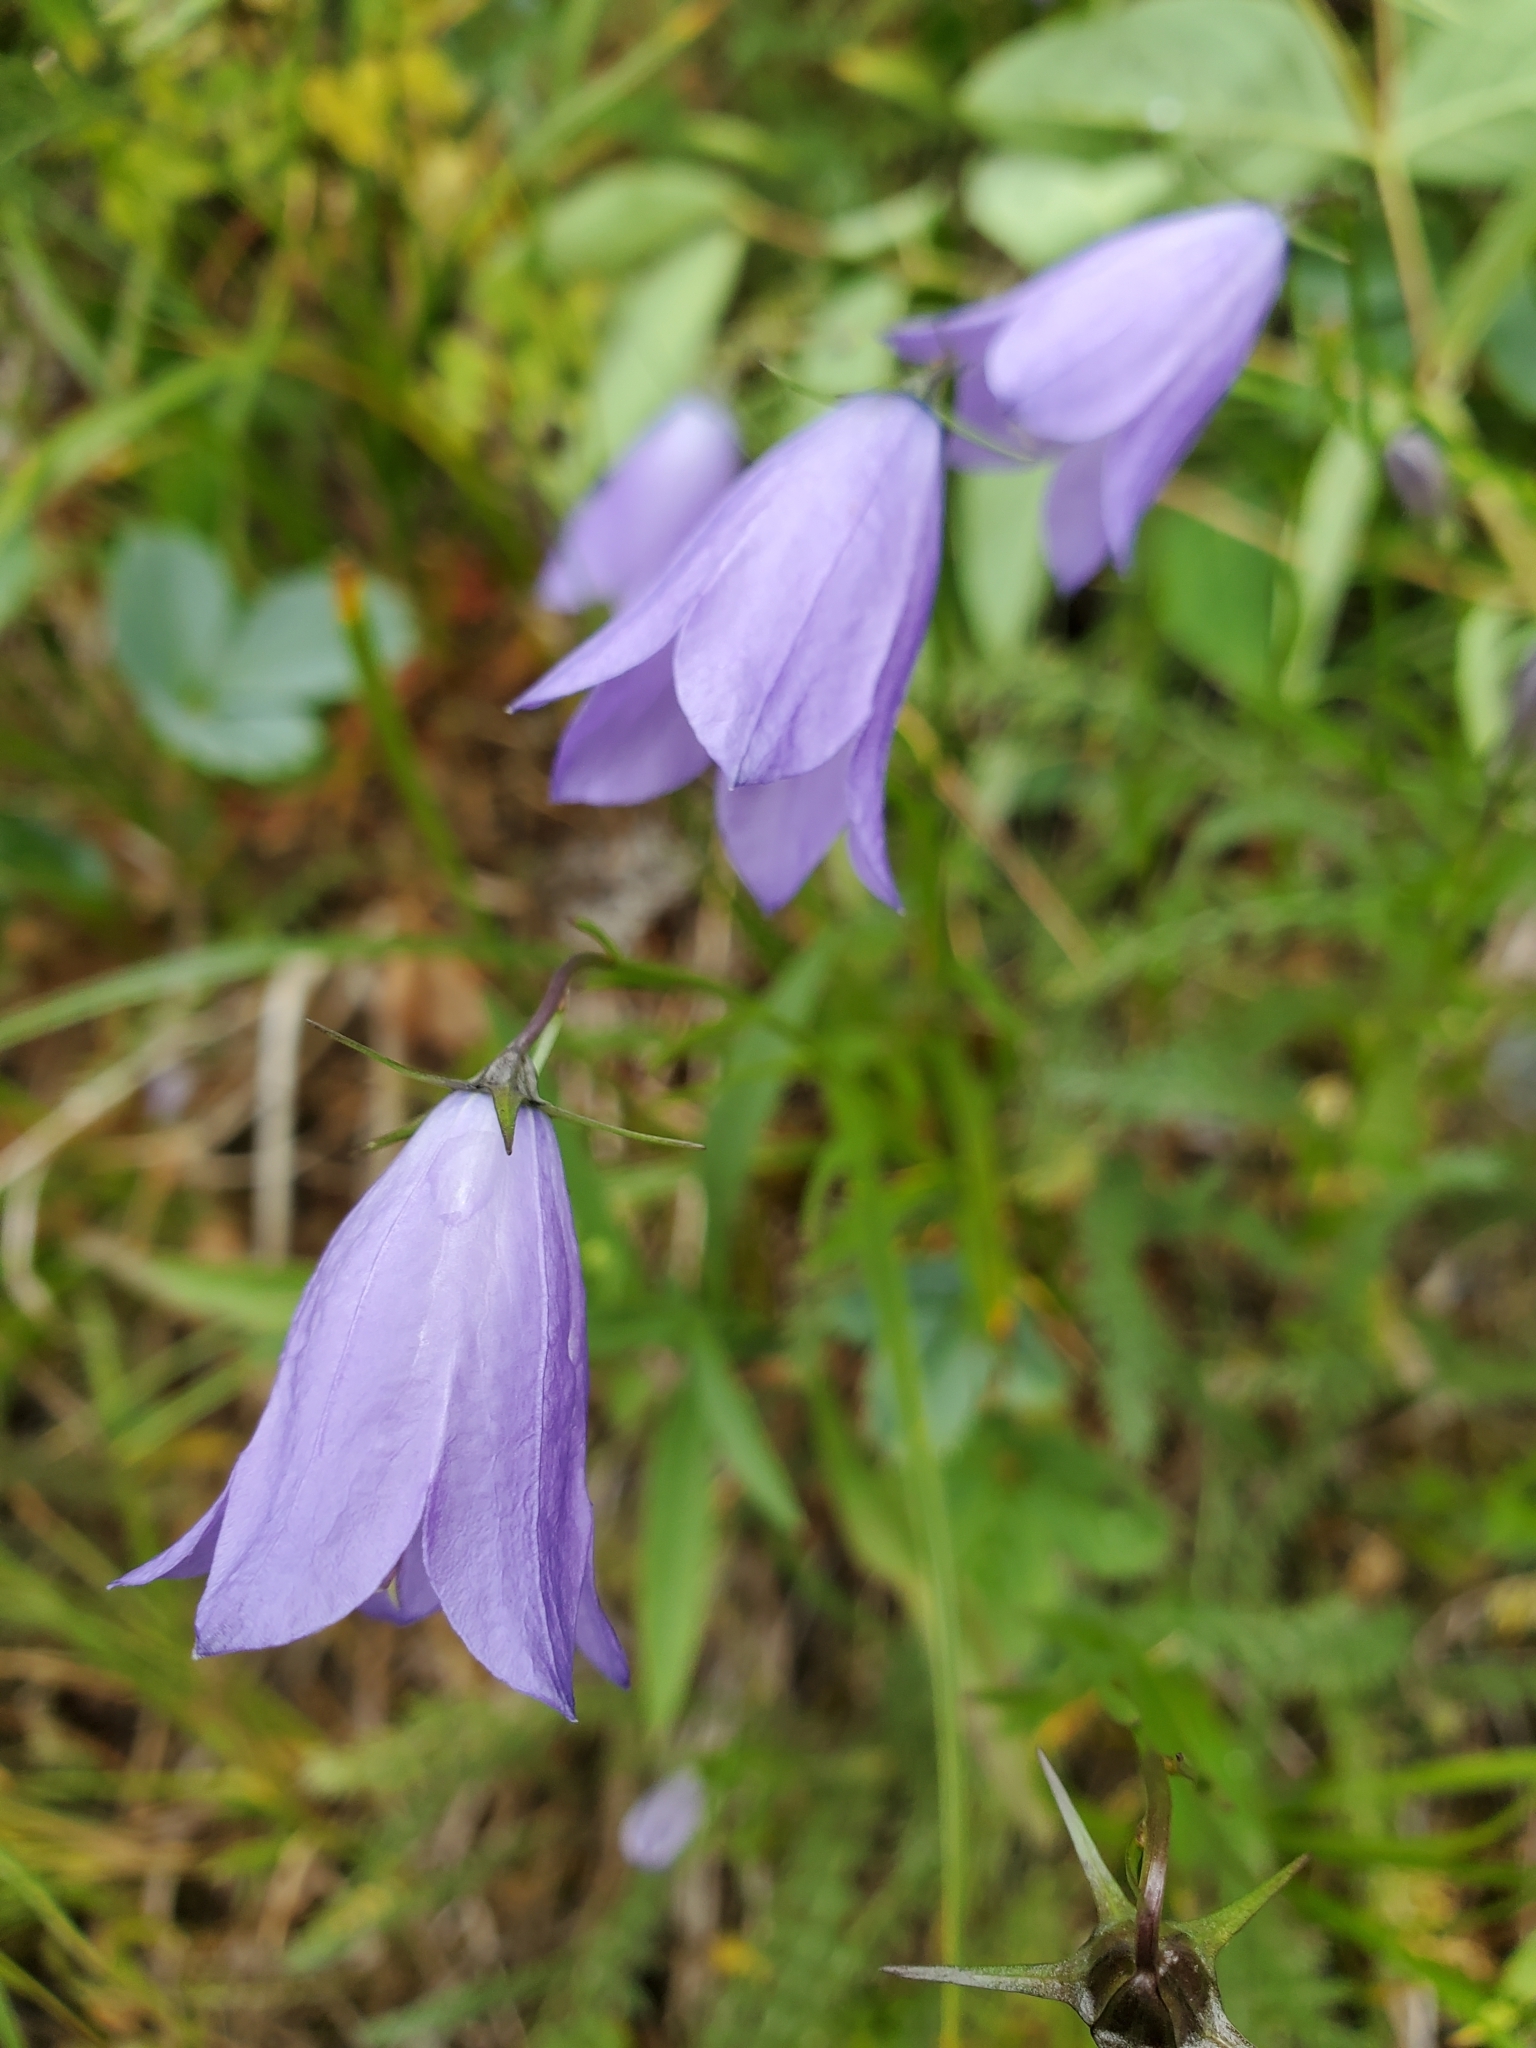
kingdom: Plantae
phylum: Tracheophyta
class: Magnoliopsida
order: Asterales
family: Campanulaceae
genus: Campanula
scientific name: Campanula alaskana
